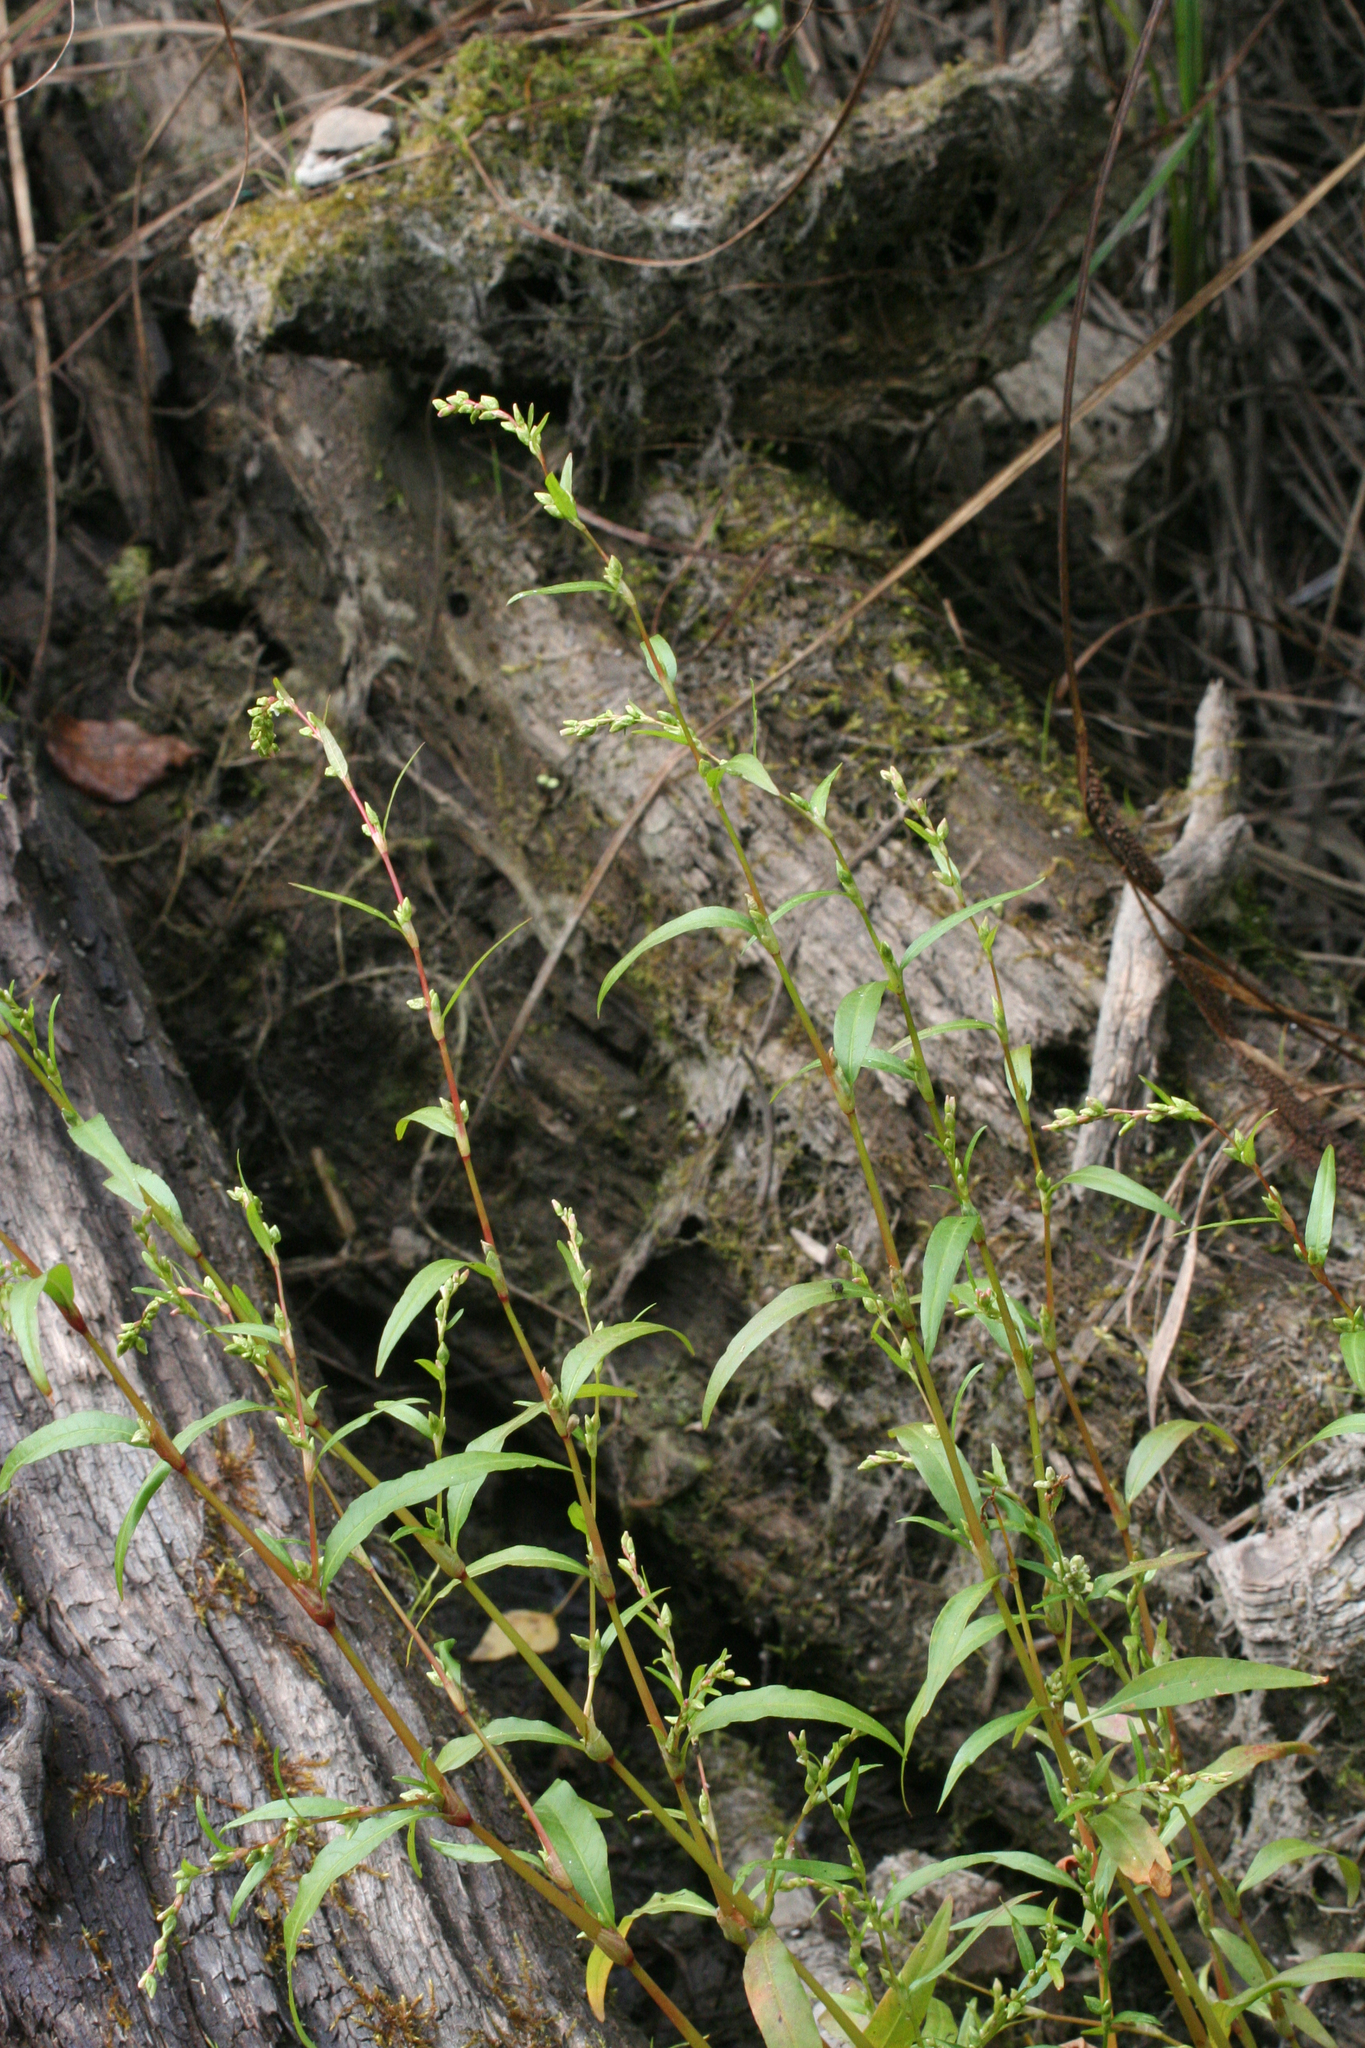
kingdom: Plantae
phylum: Tracheophyta
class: Magnoliopsida
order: Caryophyllales
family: Polygonaceae
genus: Persicaria
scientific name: Persicaria hydropiper
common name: Water-pepper
